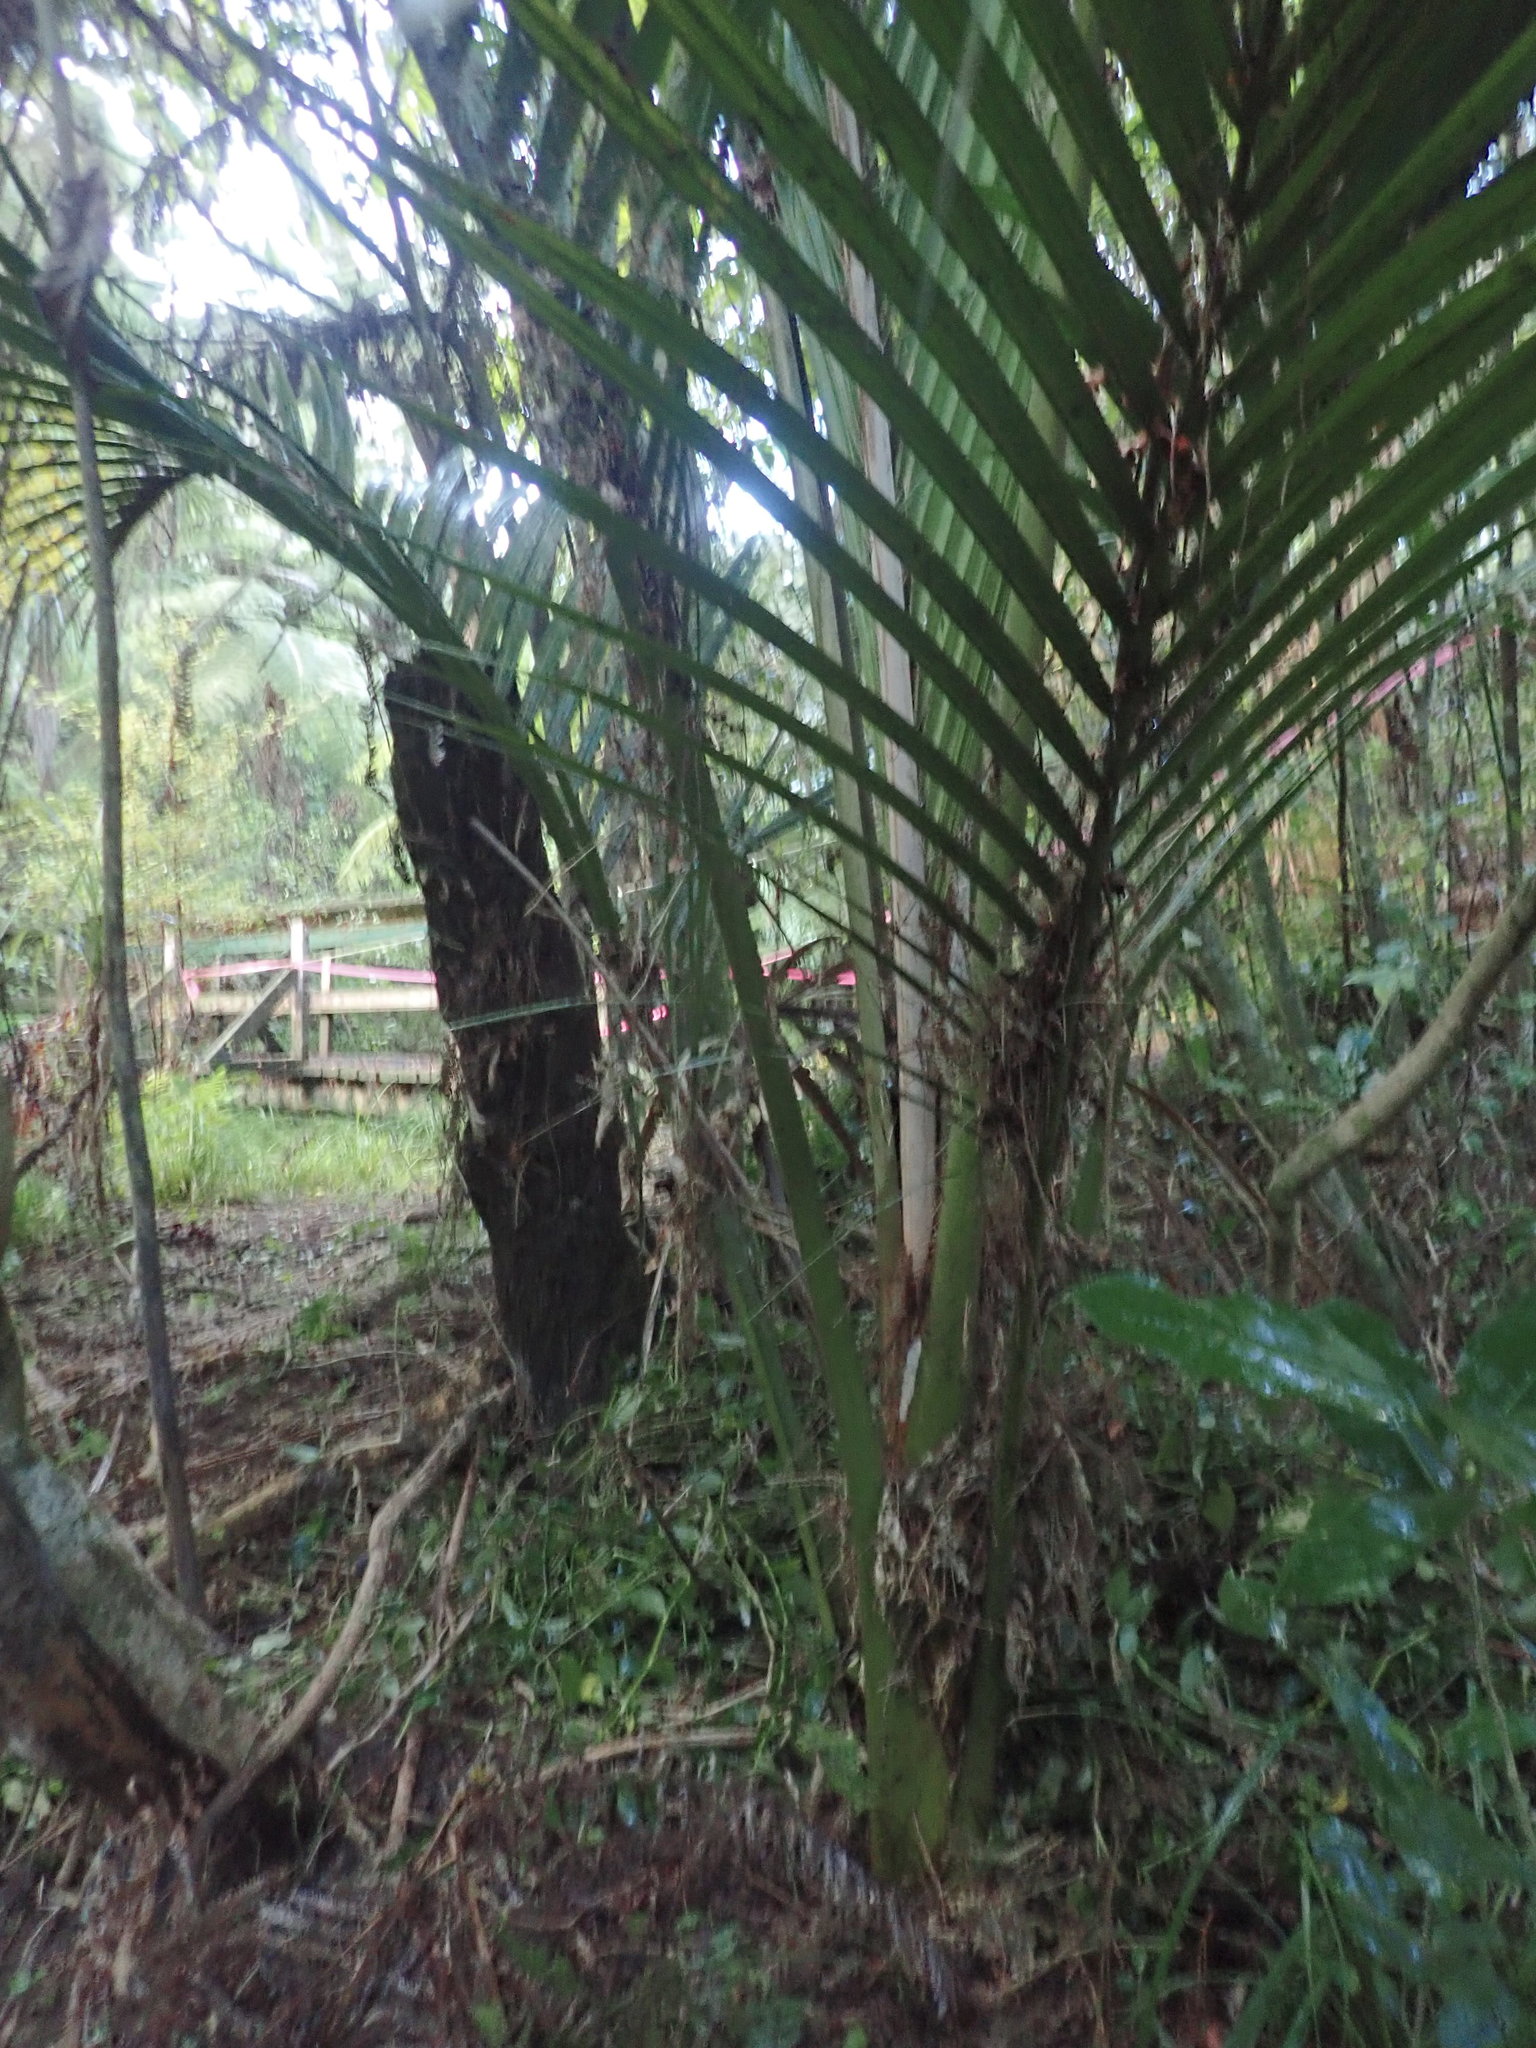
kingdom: Plantae
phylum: Tracheophyta
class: Liliopsida
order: Arecales
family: Arecaceae
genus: Rhopalostylis
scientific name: Rhopalostylis sapida
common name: Feather-duster palm
